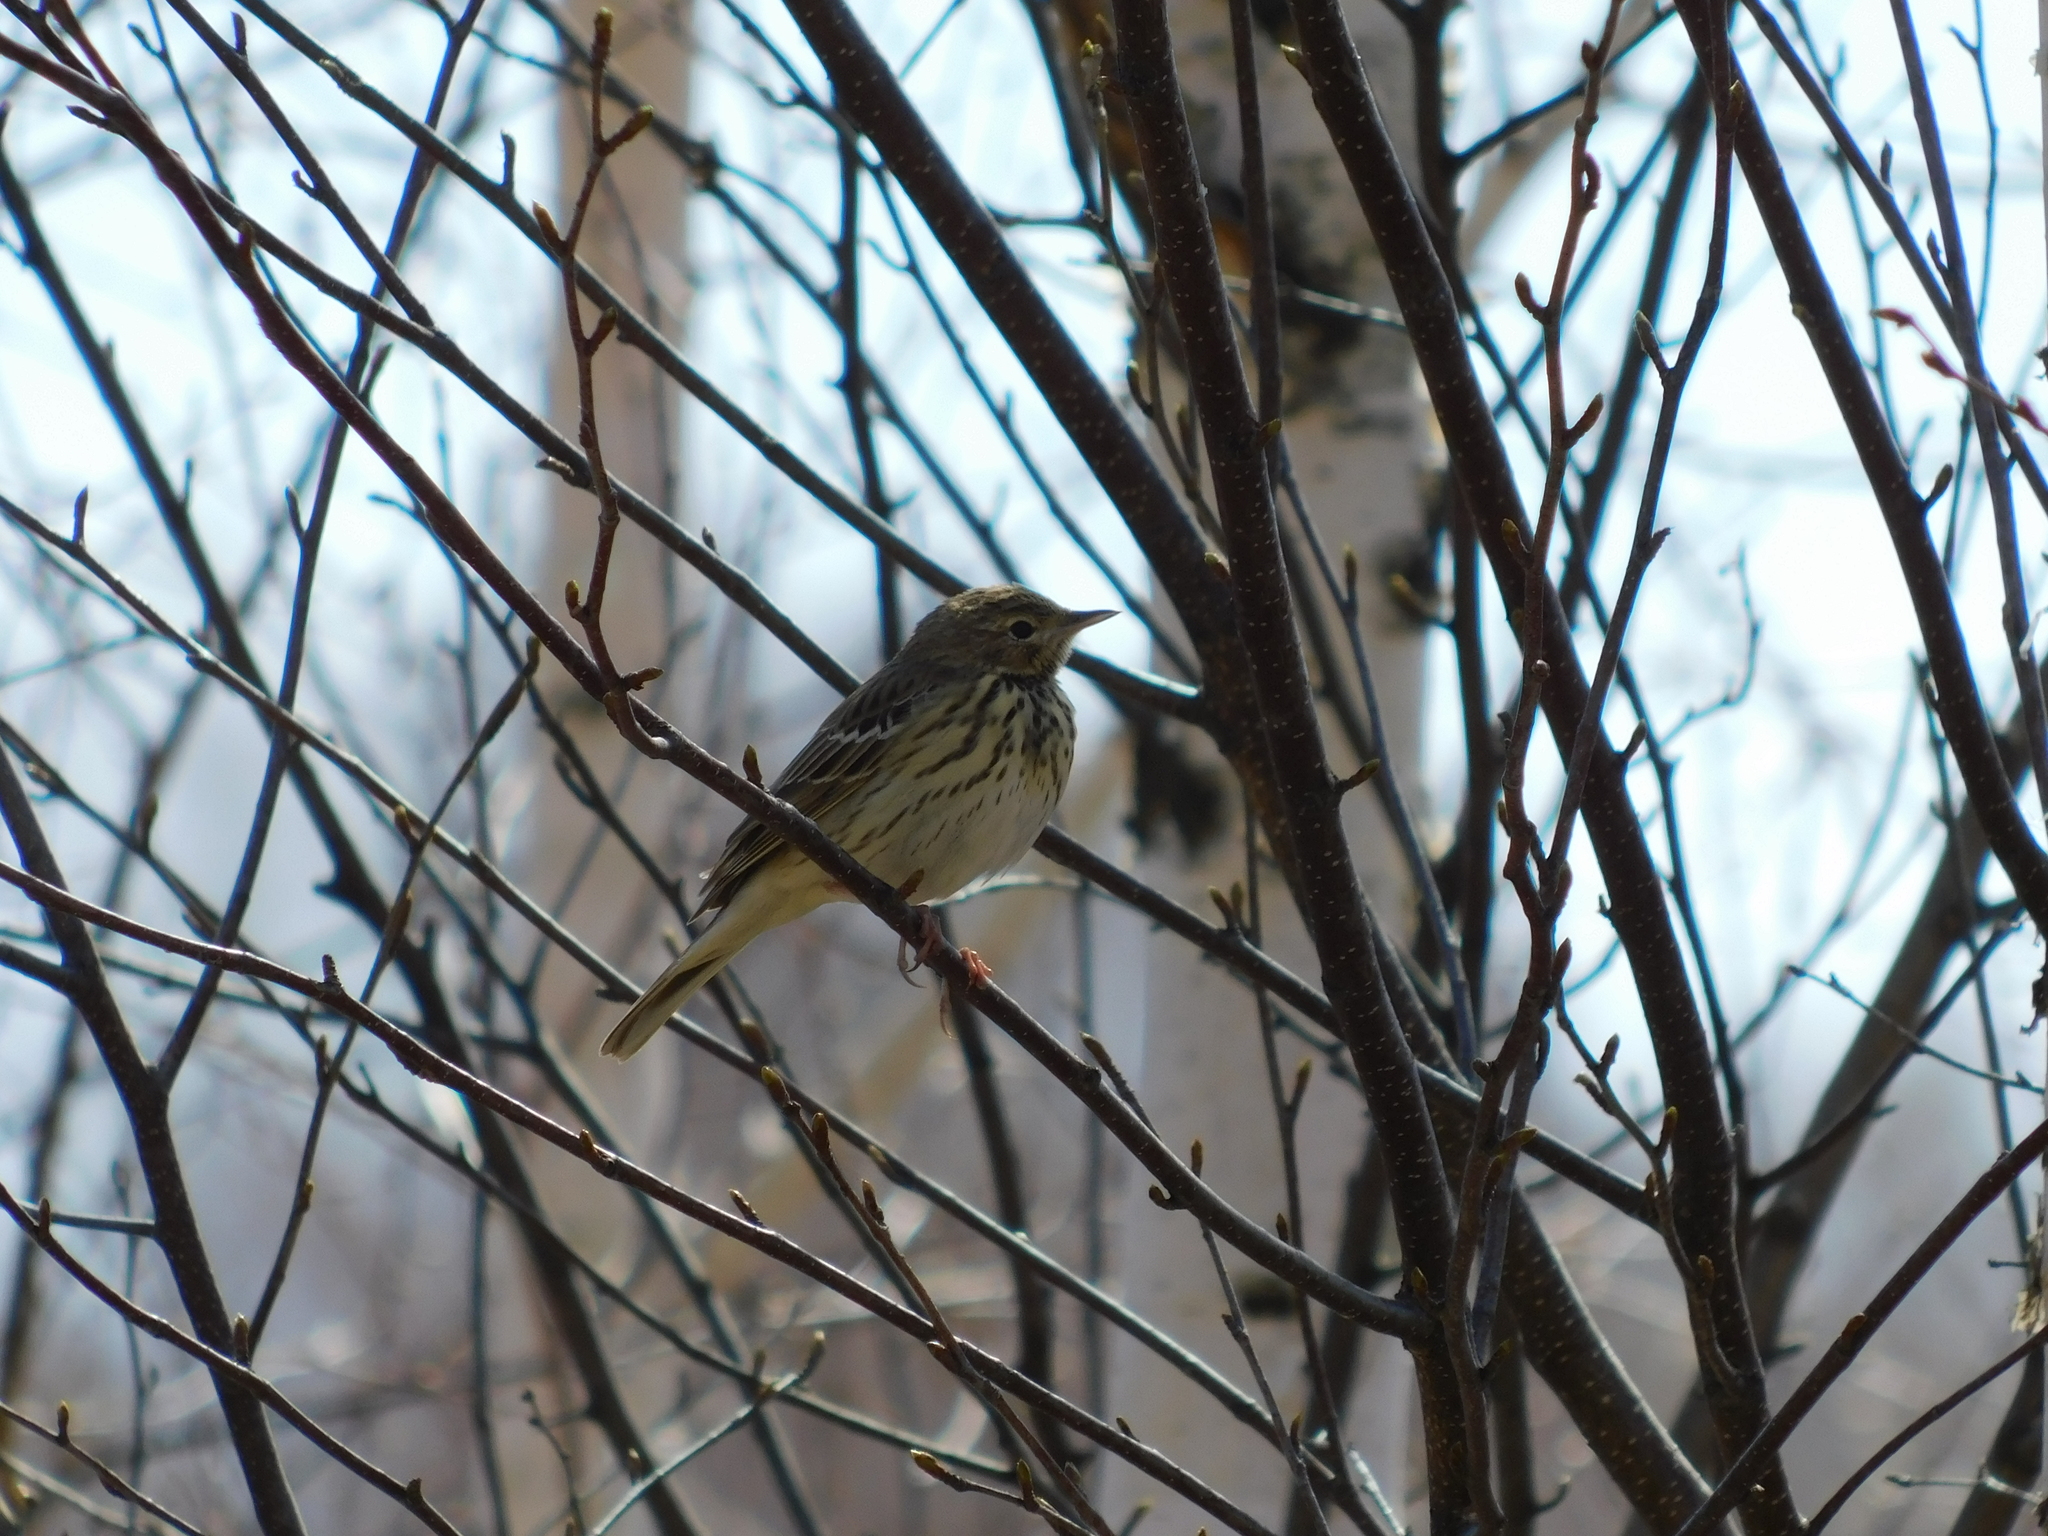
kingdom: Animalia
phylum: Chordata
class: Aves
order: Passeriformes
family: Motacillidae
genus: Anthus
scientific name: Anthus trivialis
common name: Tree pipit
